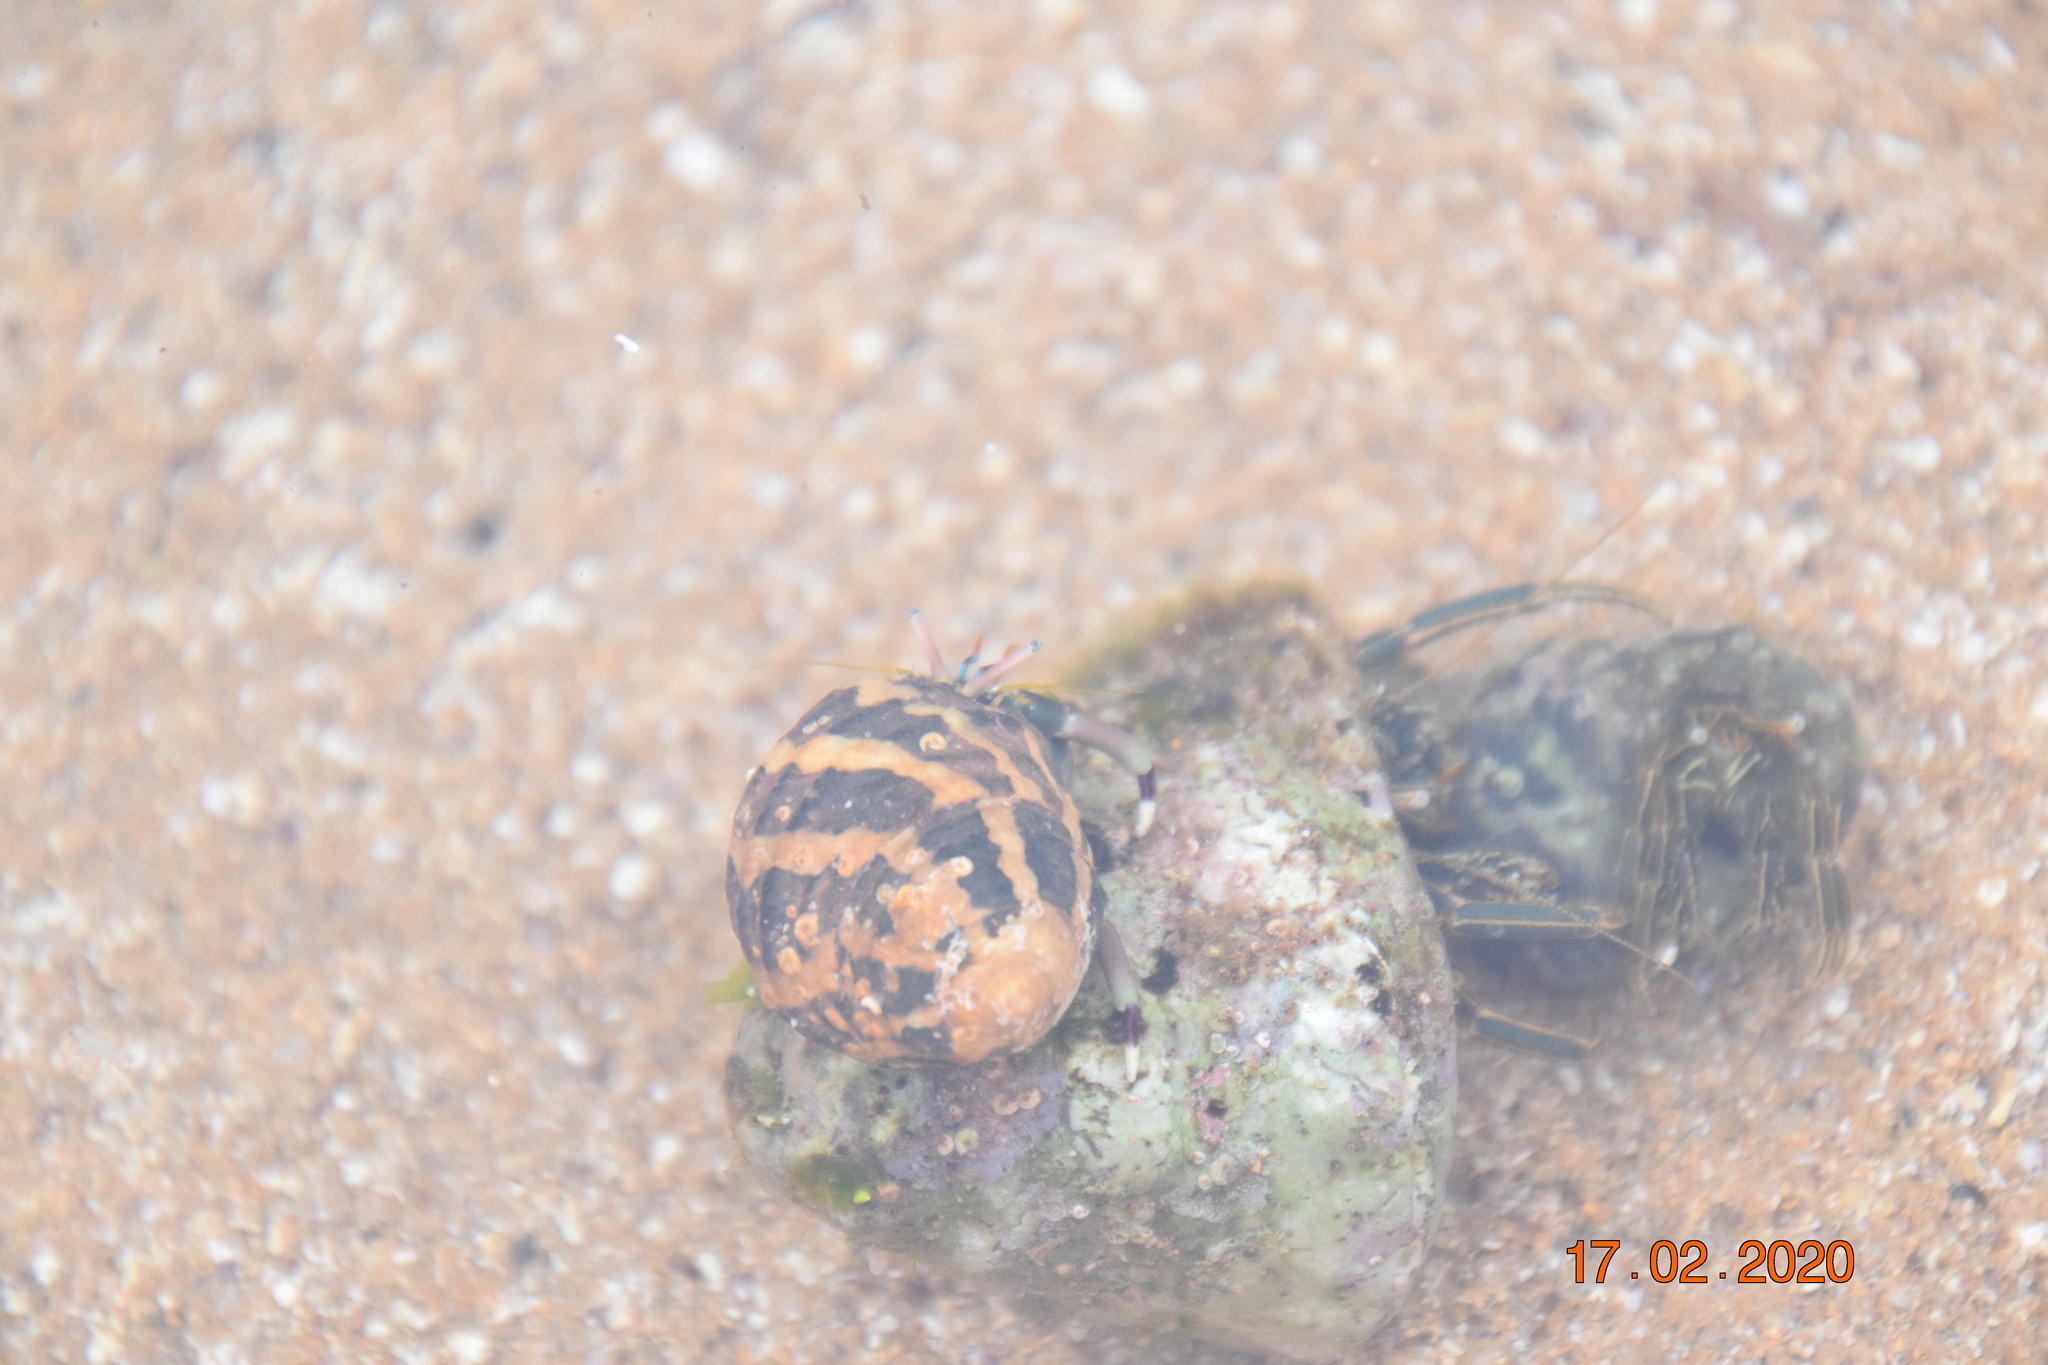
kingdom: Animalia
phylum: Arthropoda
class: Malacostraca
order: Decapoda
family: Diogenidae
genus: Calcinus
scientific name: Calcinus latens
